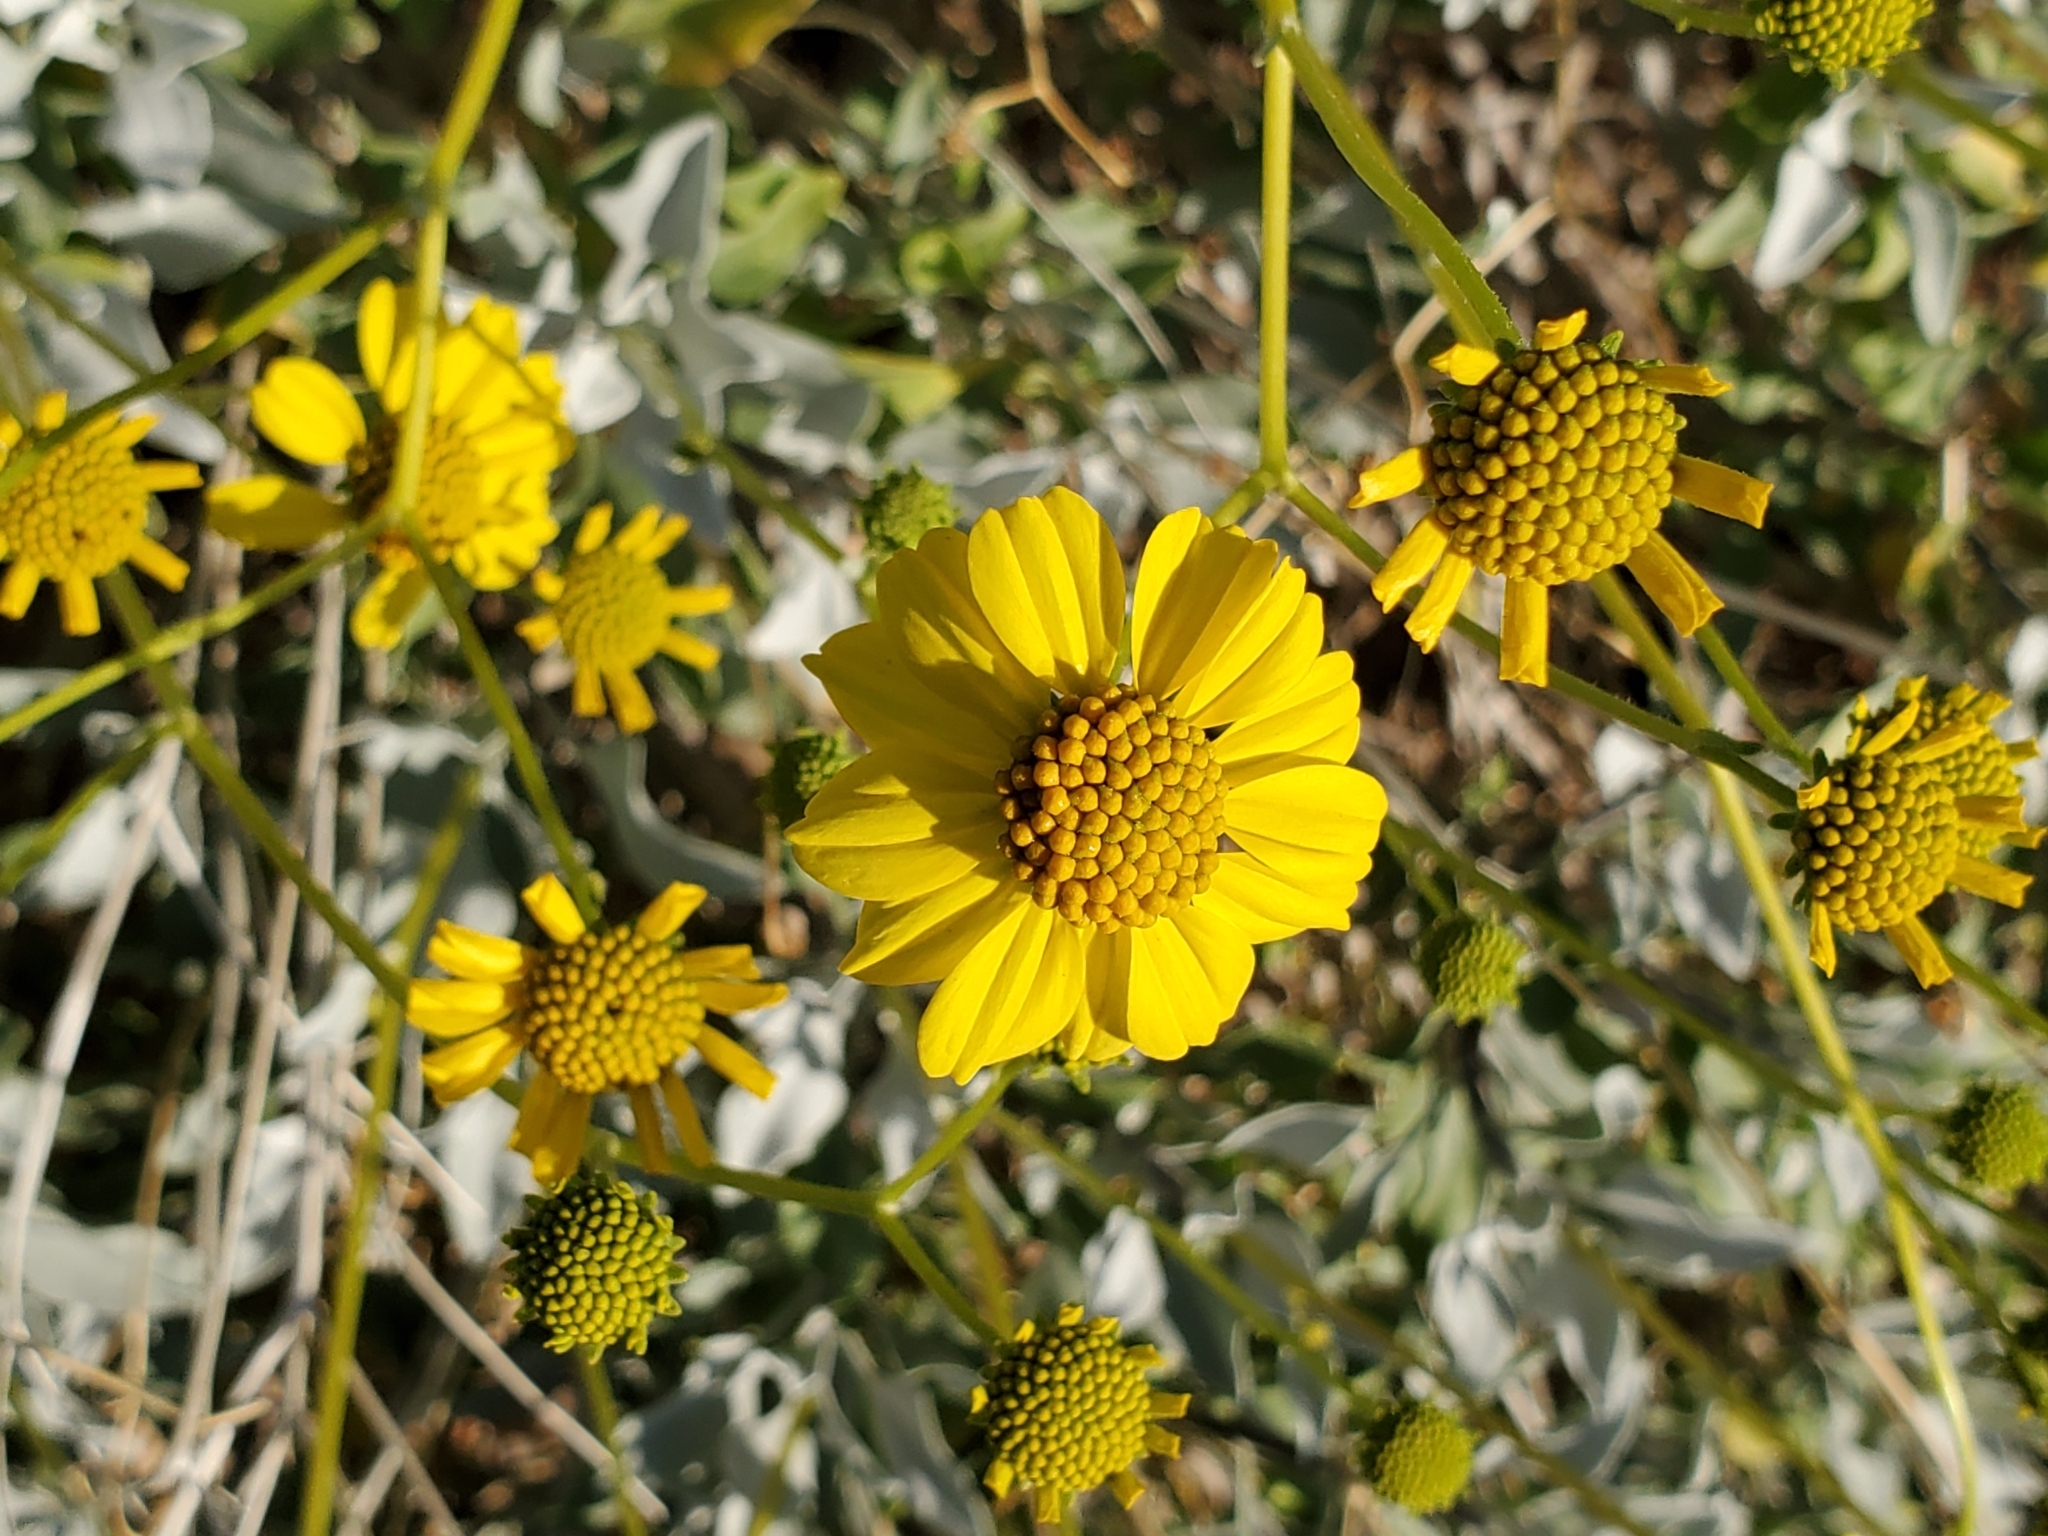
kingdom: Plantae
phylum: Tracheophyta
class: Magnoliopsida
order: Asterales
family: Asteraceae
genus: Encelia
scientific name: Encelia farinosa
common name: Brittlebush
